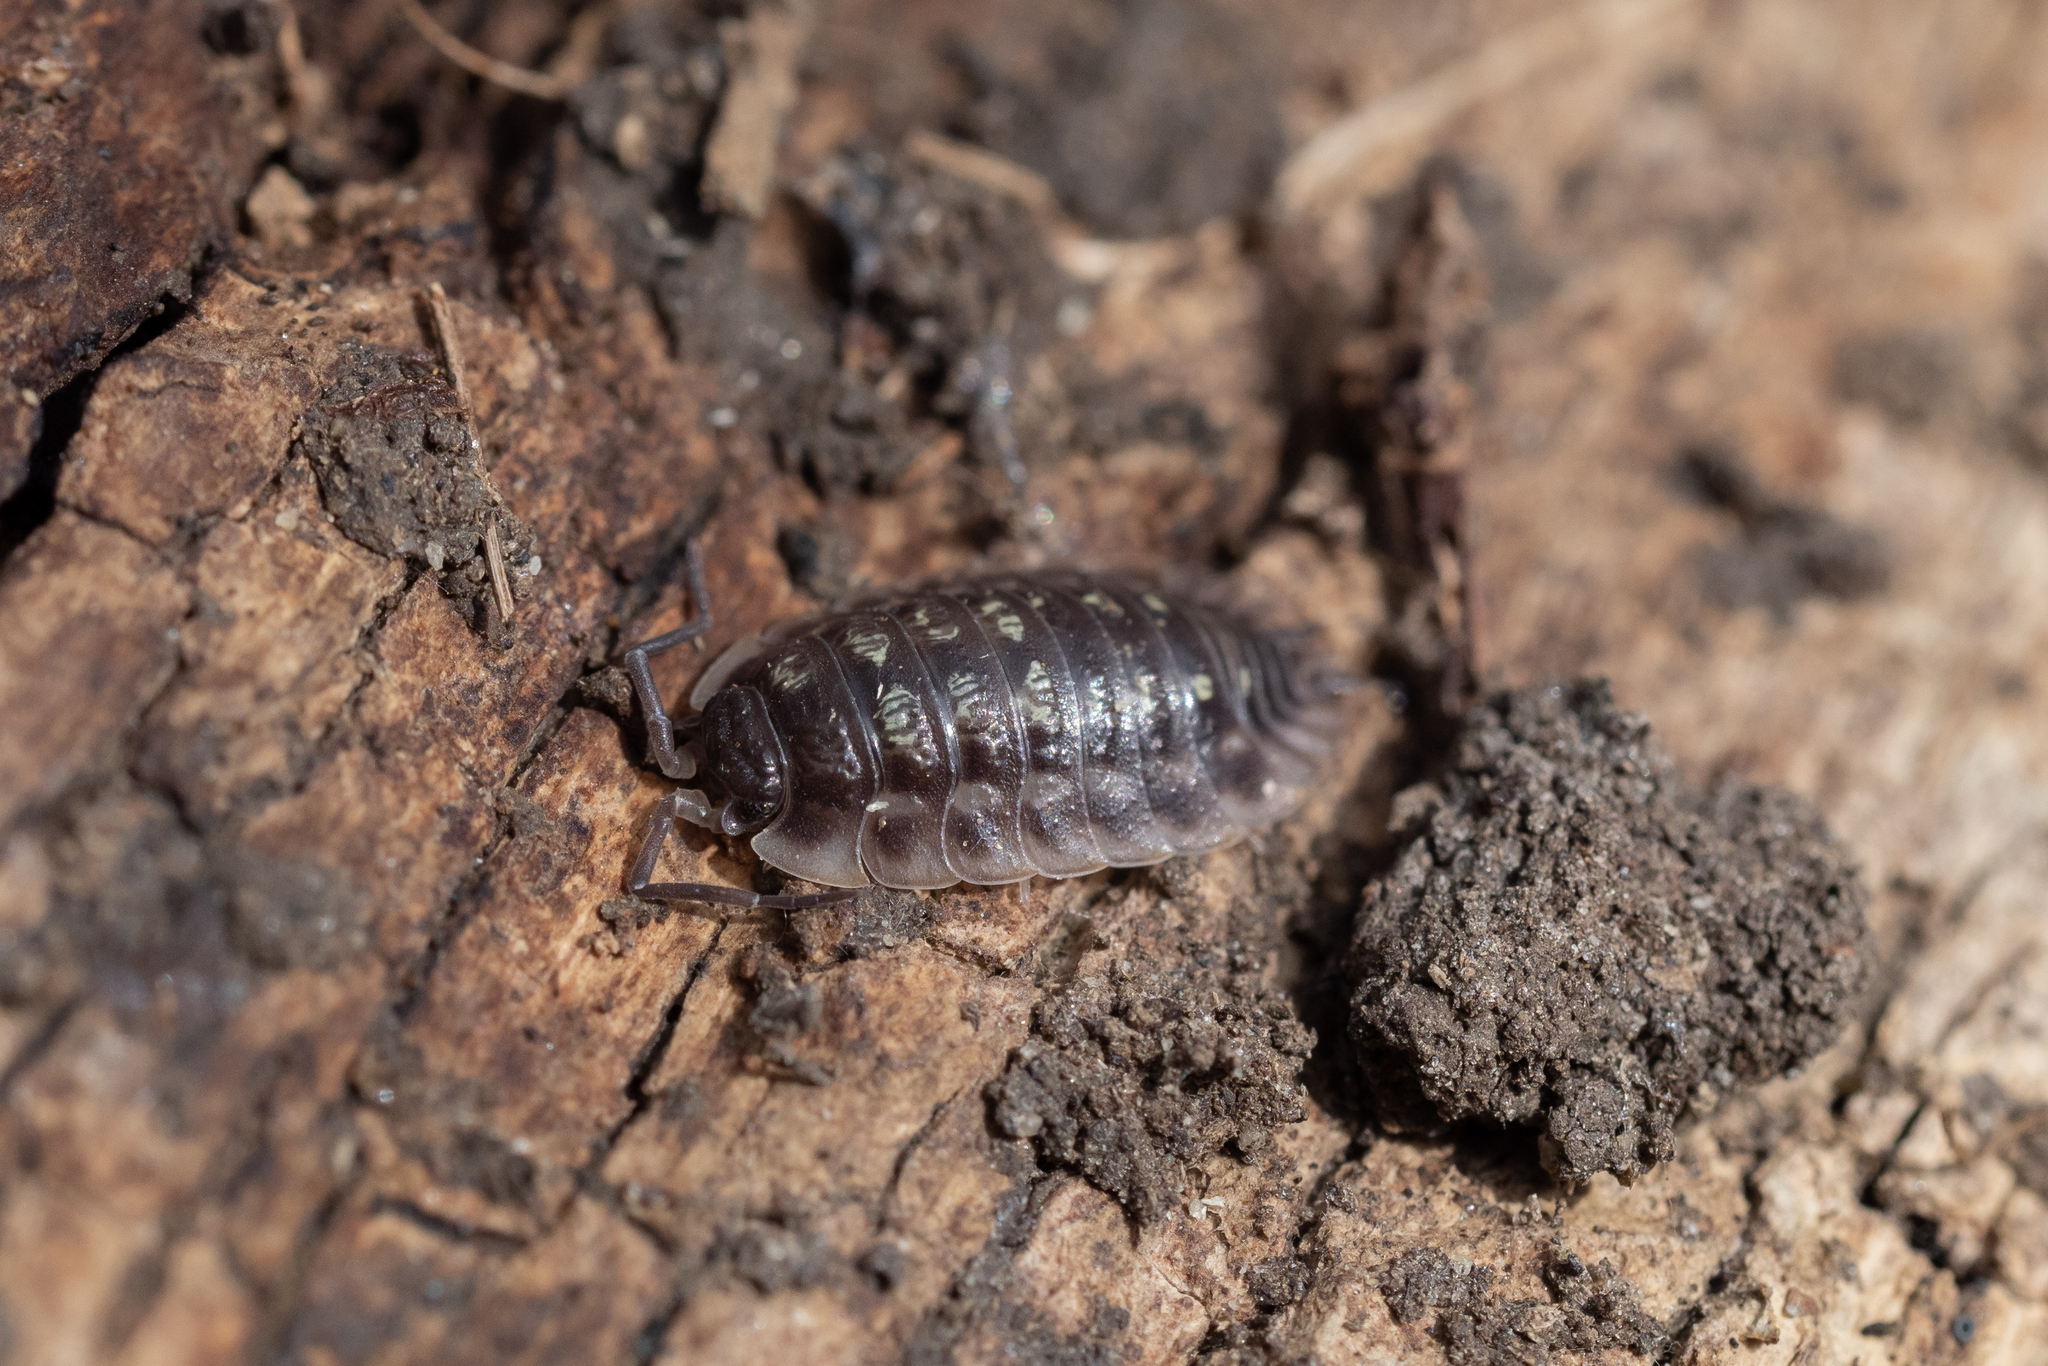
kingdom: Animalia
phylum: Arthropoda
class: Malacostraca
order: Isopoda
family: Oniscidae
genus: Oniscus
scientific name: Oniscus asellus
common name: Common shiny woodlouse
